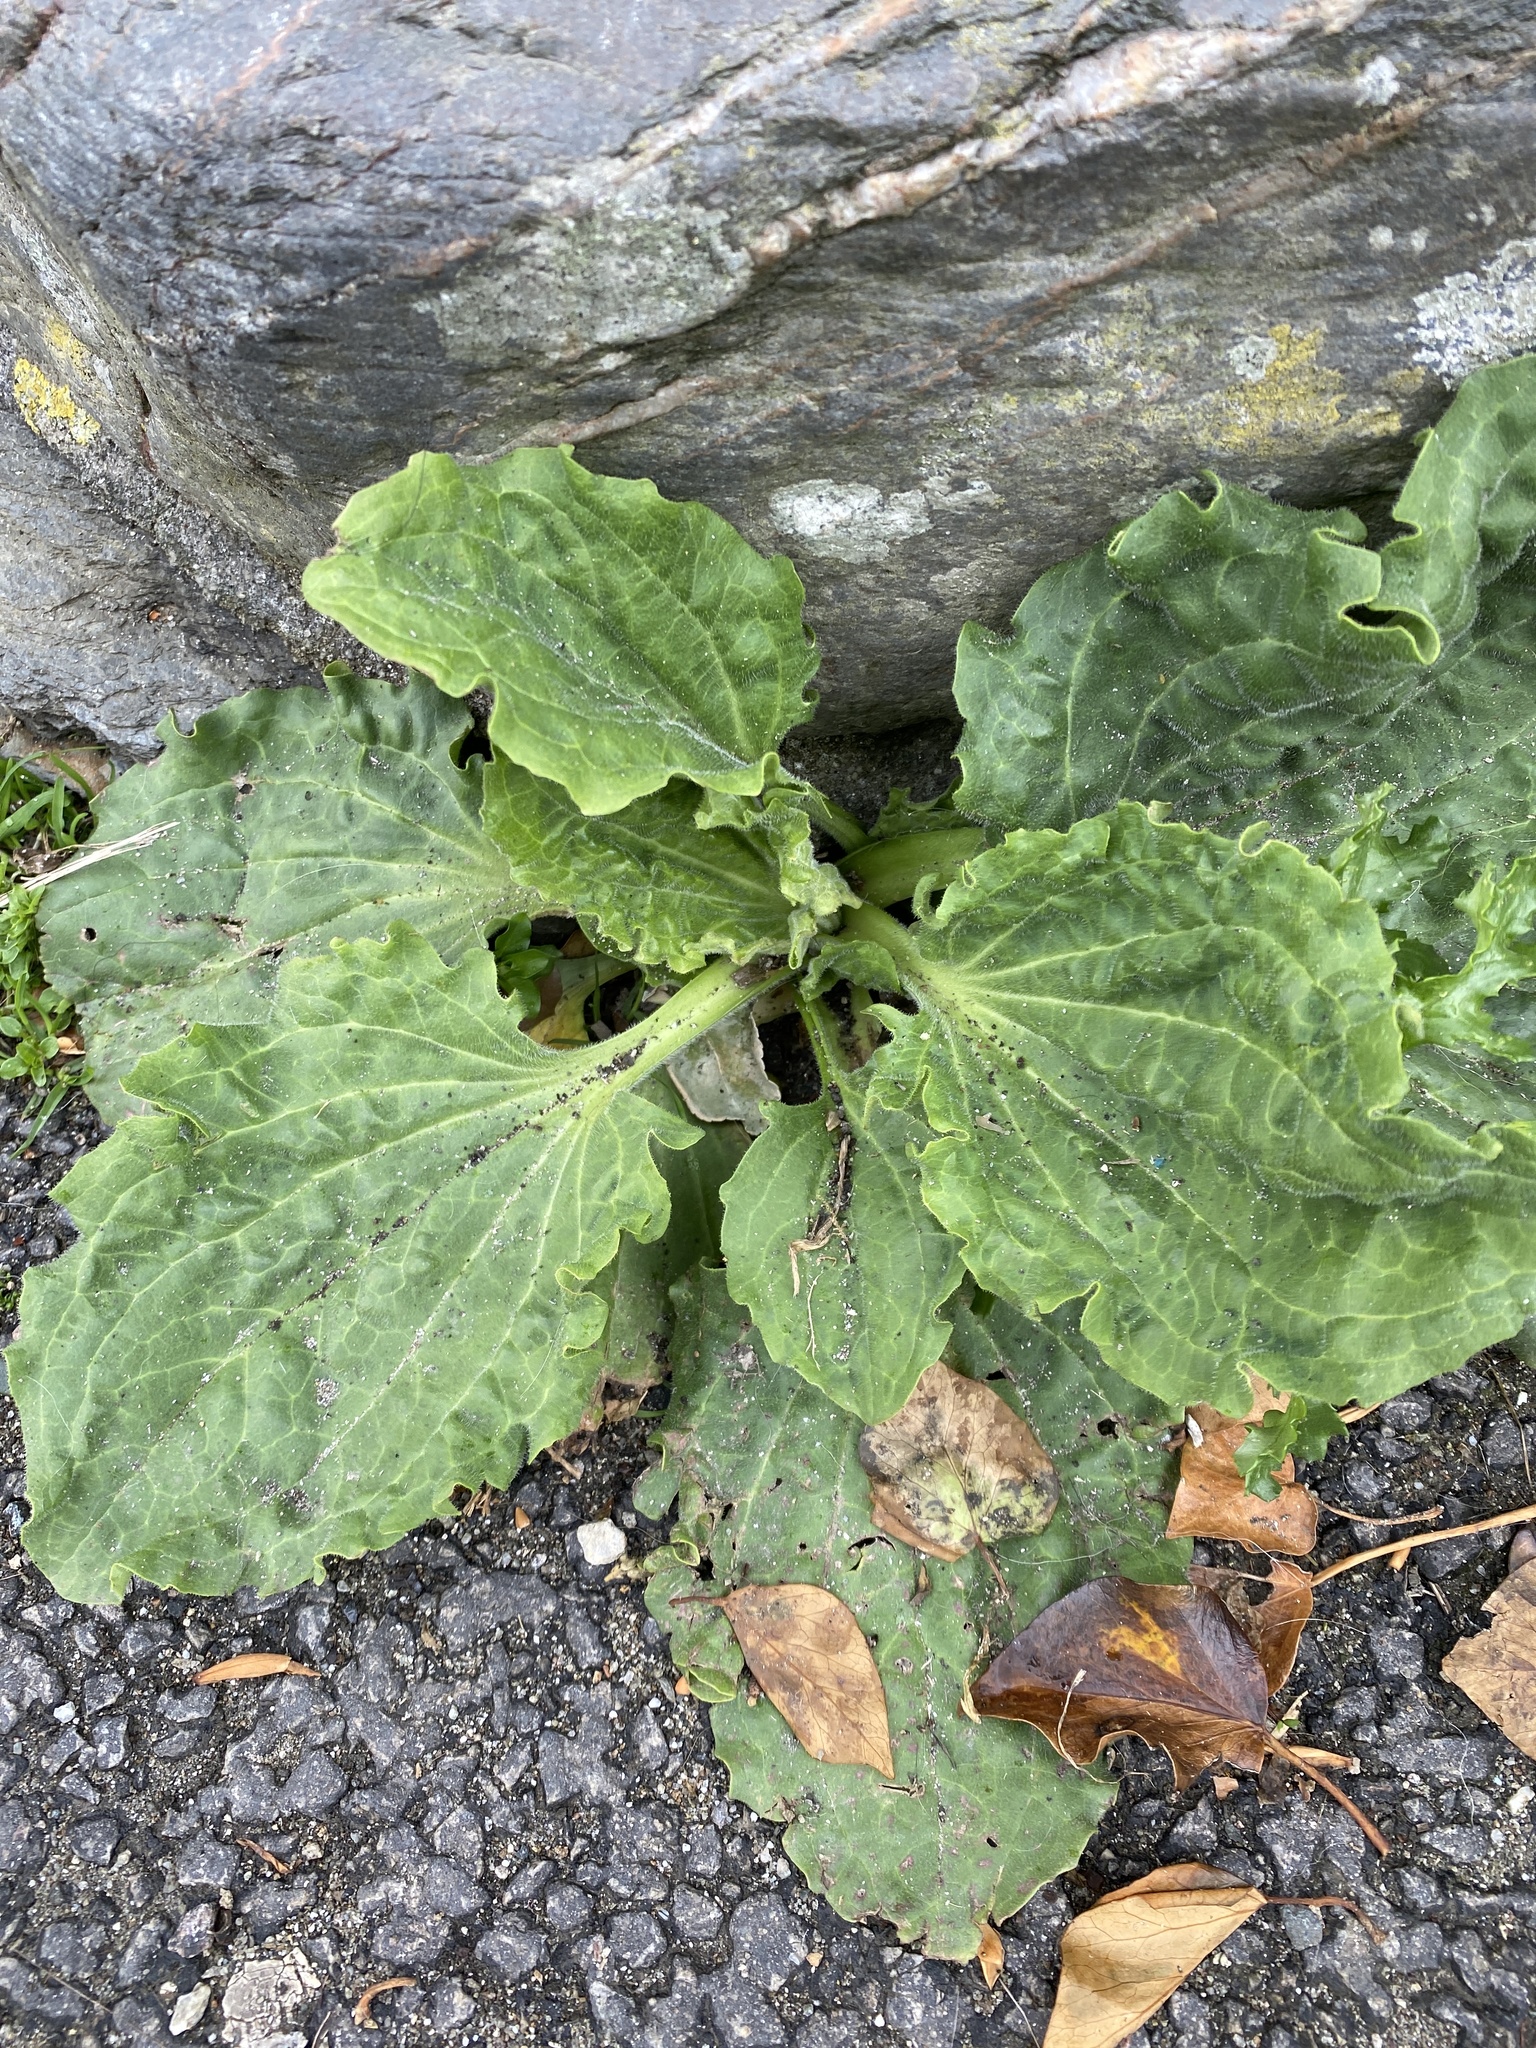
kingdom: Plantae
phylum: Tracheophyta
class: Magnoliopsida
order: Lamiales
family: Plantaginaceae
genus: Plantago
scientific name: Plantago major
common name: Common plantain
